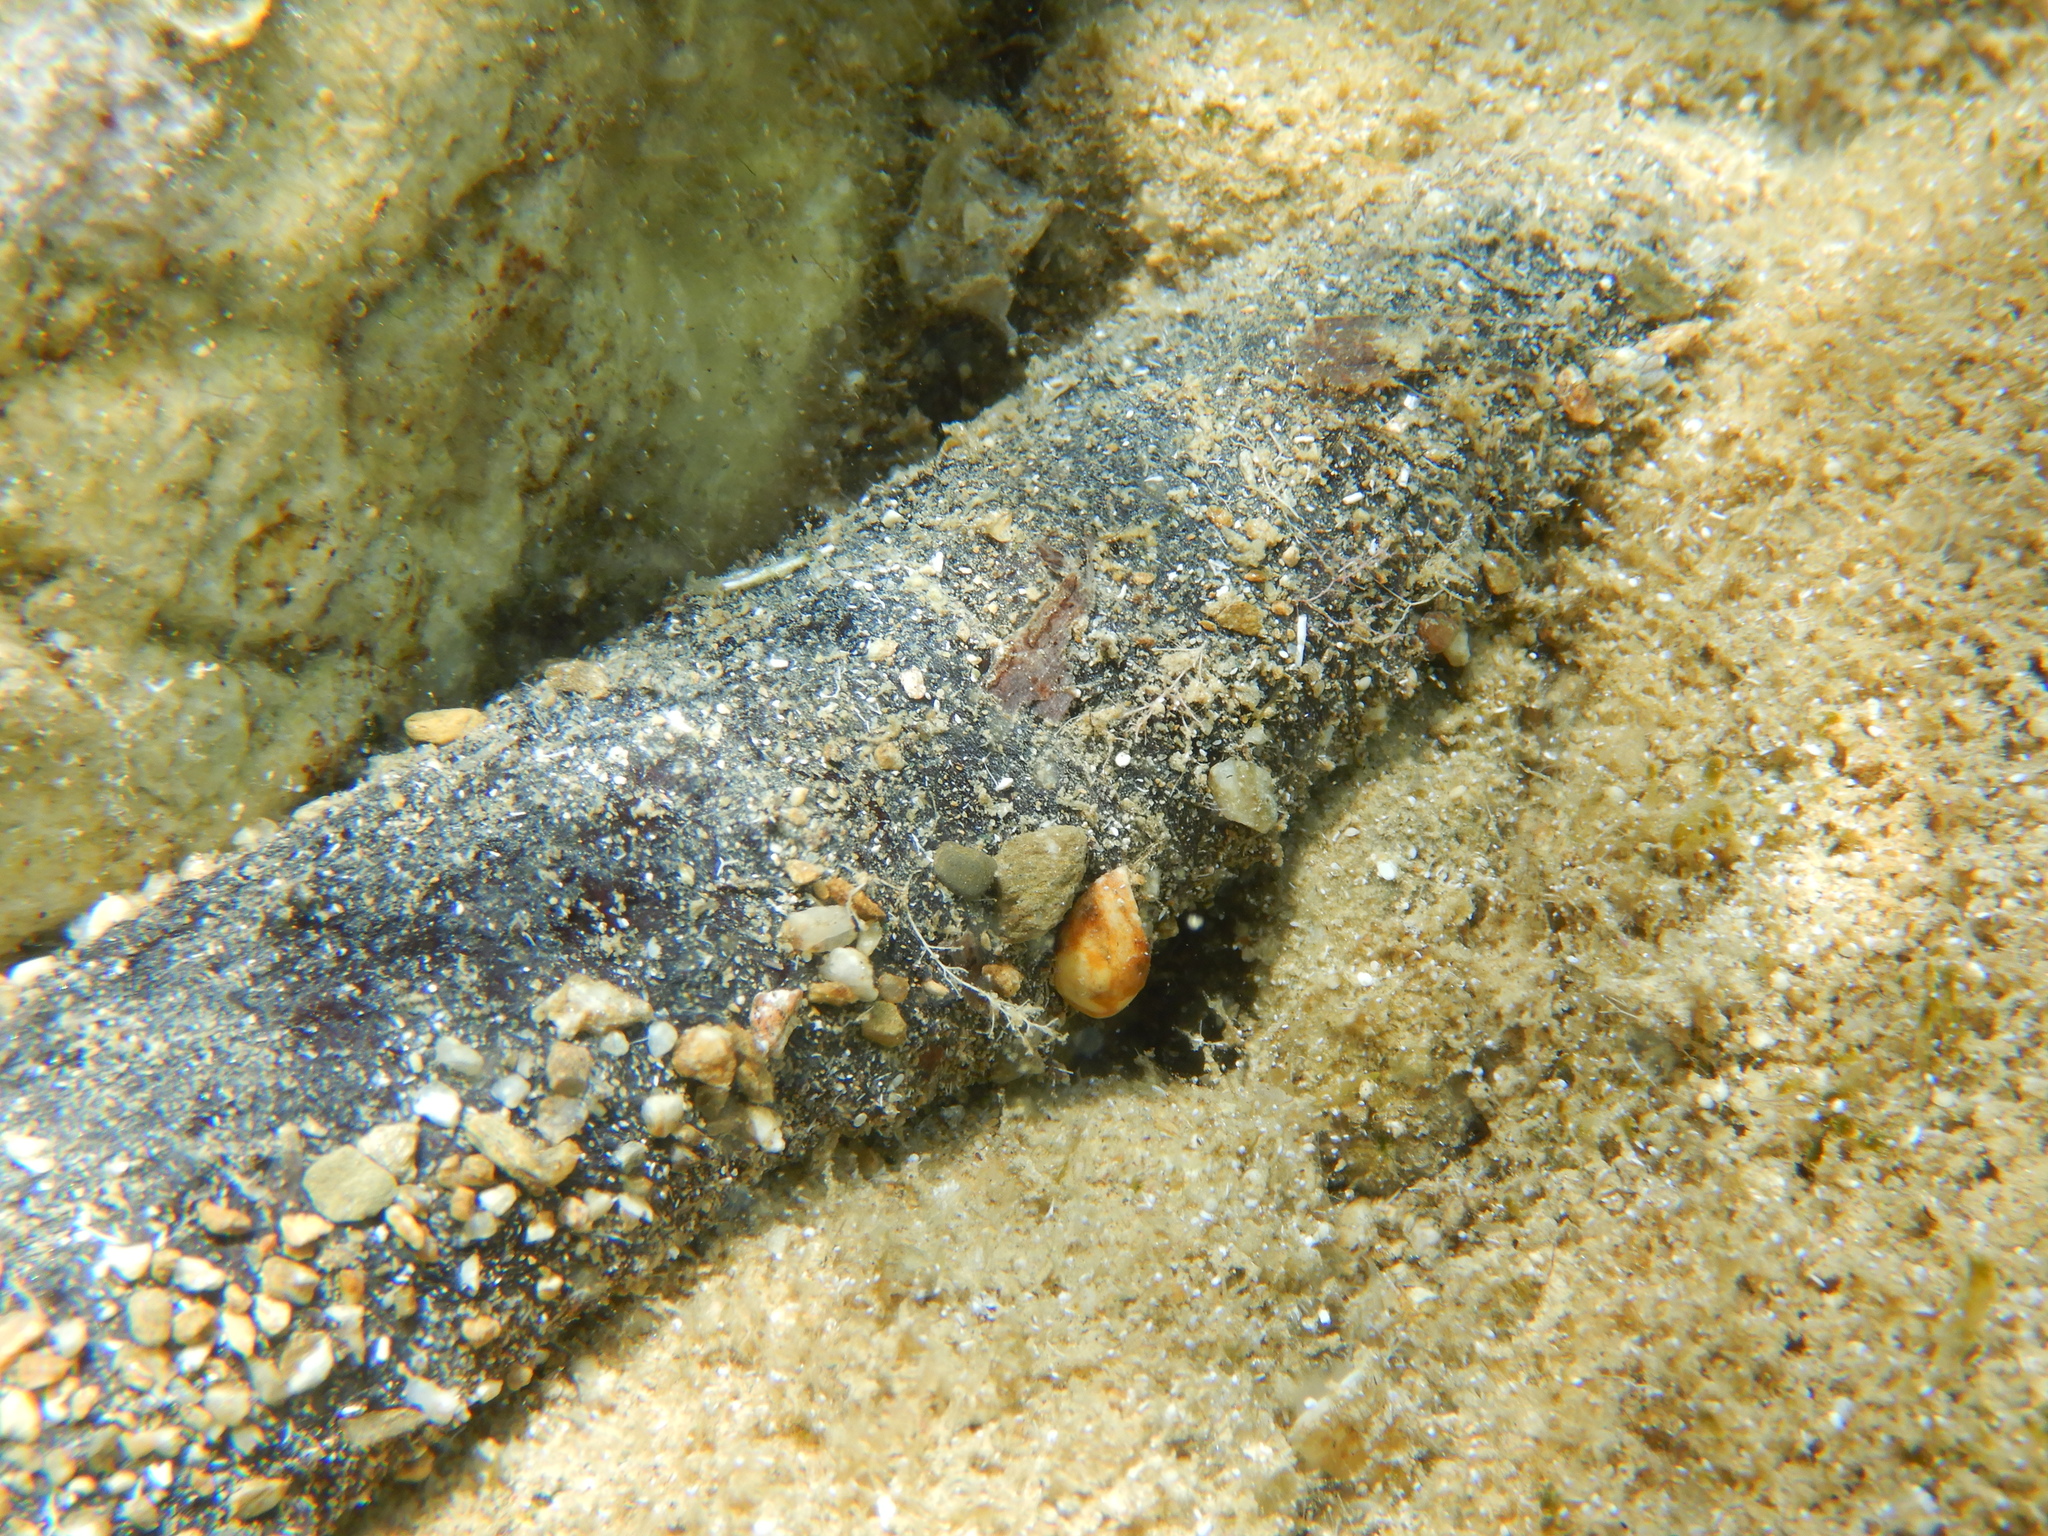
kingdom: Animalia
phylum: Echinodermata
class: Holothuroidea
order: Holothuriida
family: Holothuriidae
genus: Holothuria
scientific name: Holothuria
